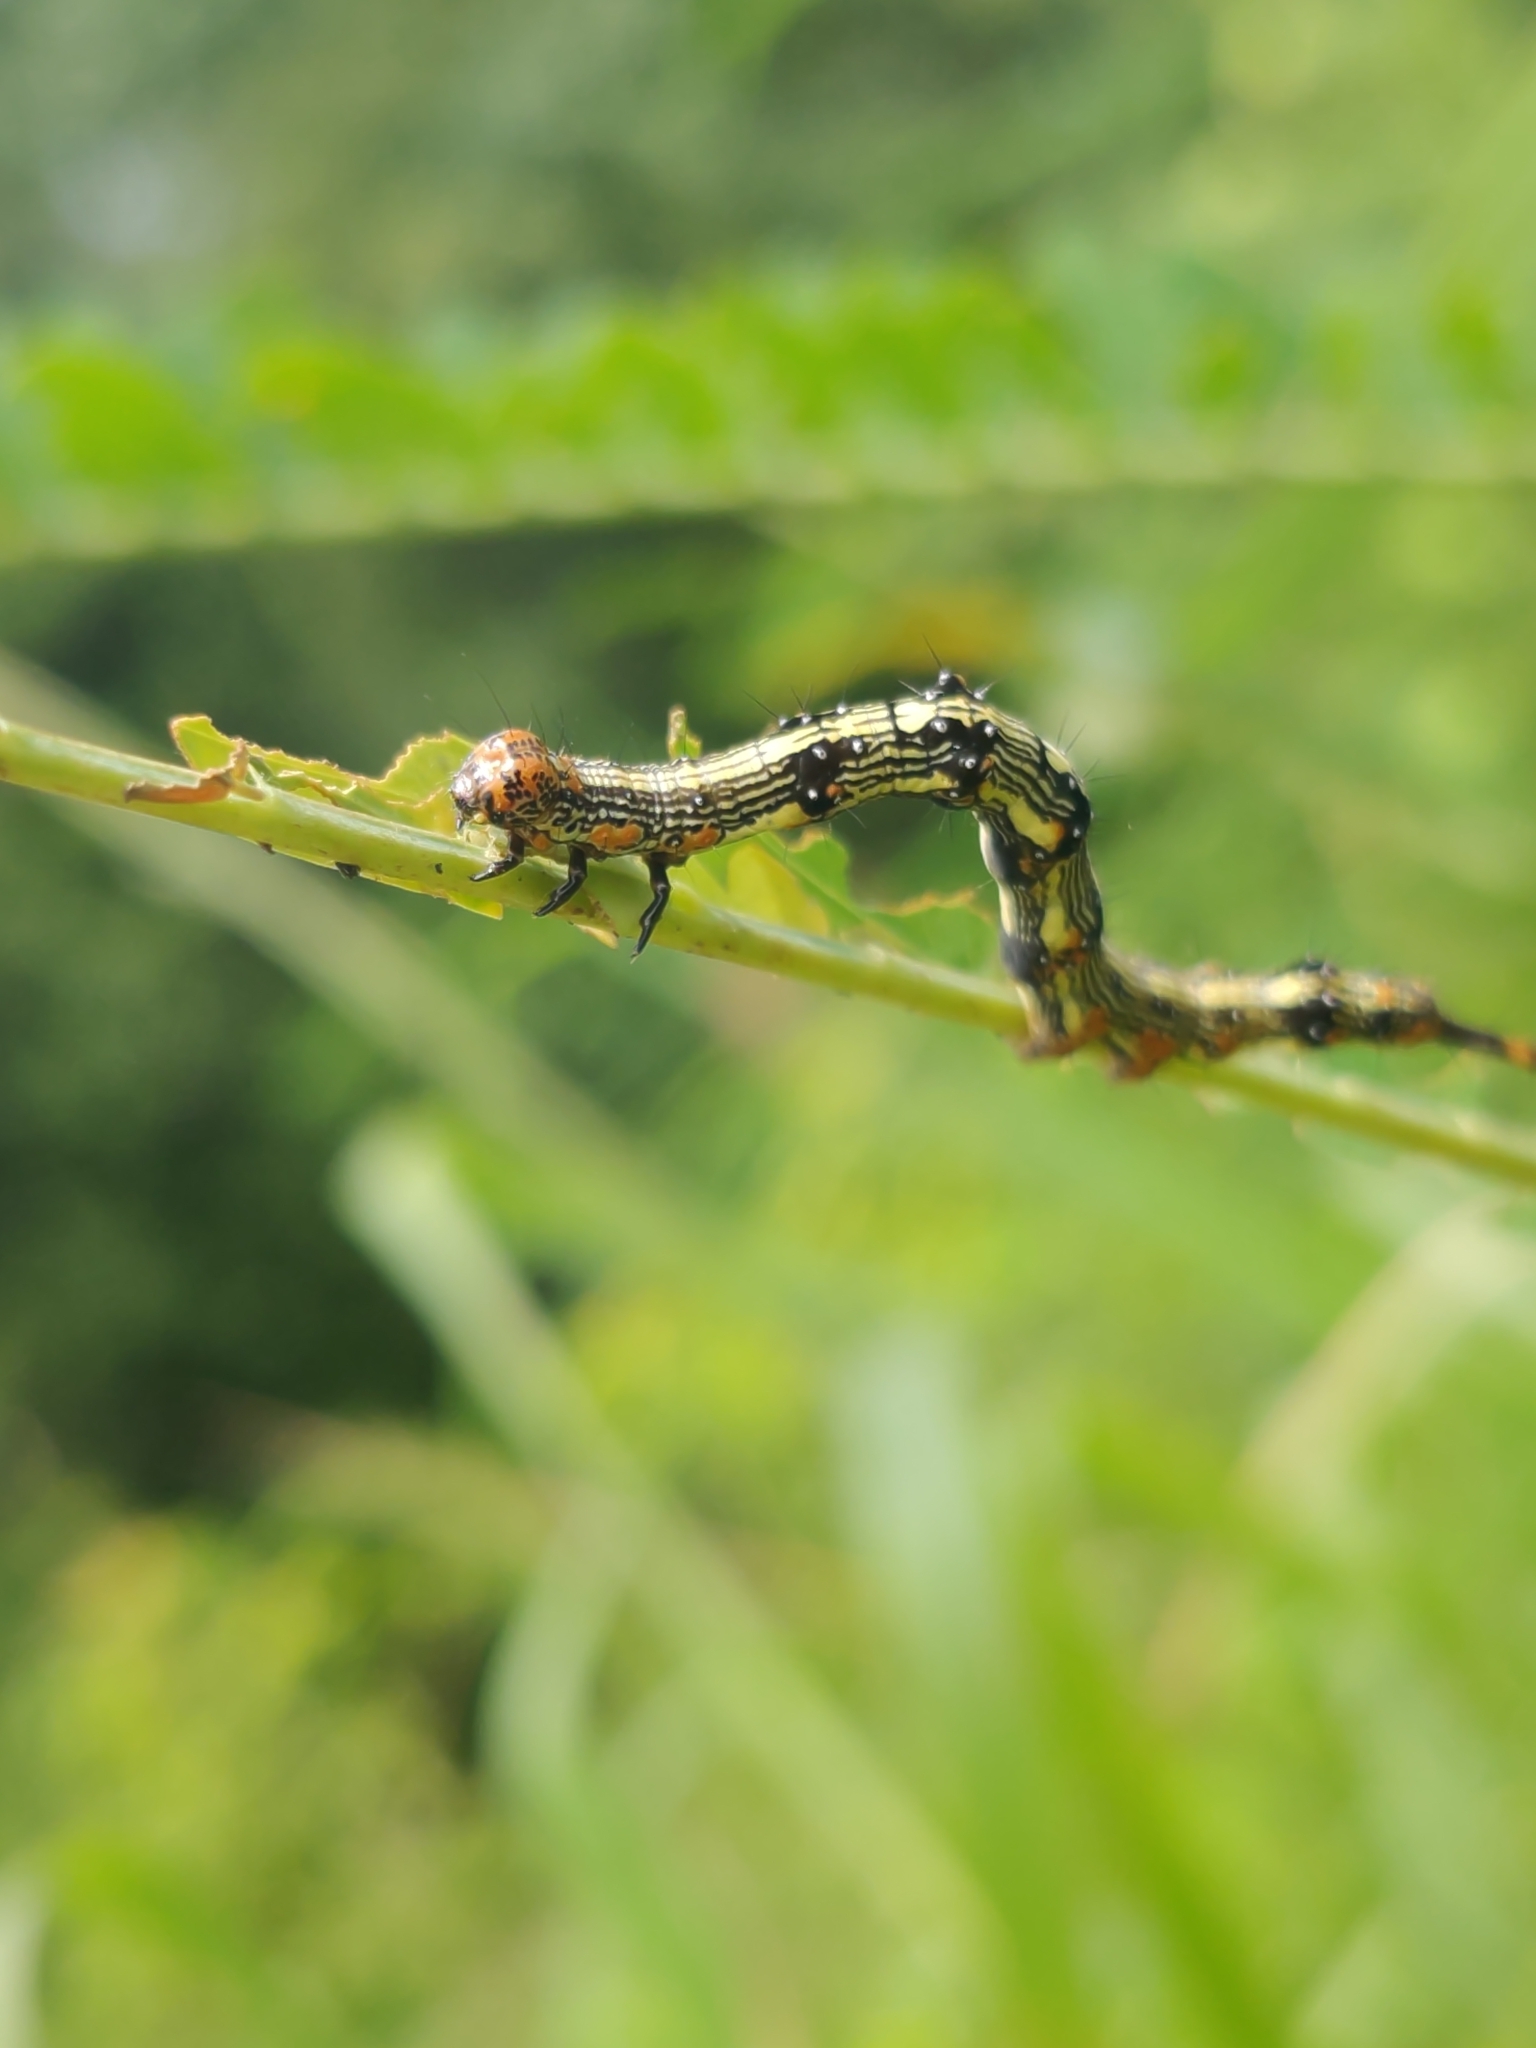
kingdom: Animalia
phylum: Arthropoda
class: Insecta
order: Lepidoptera
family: Erebidae
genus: Selenisa
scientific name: Selenisa sueroides
